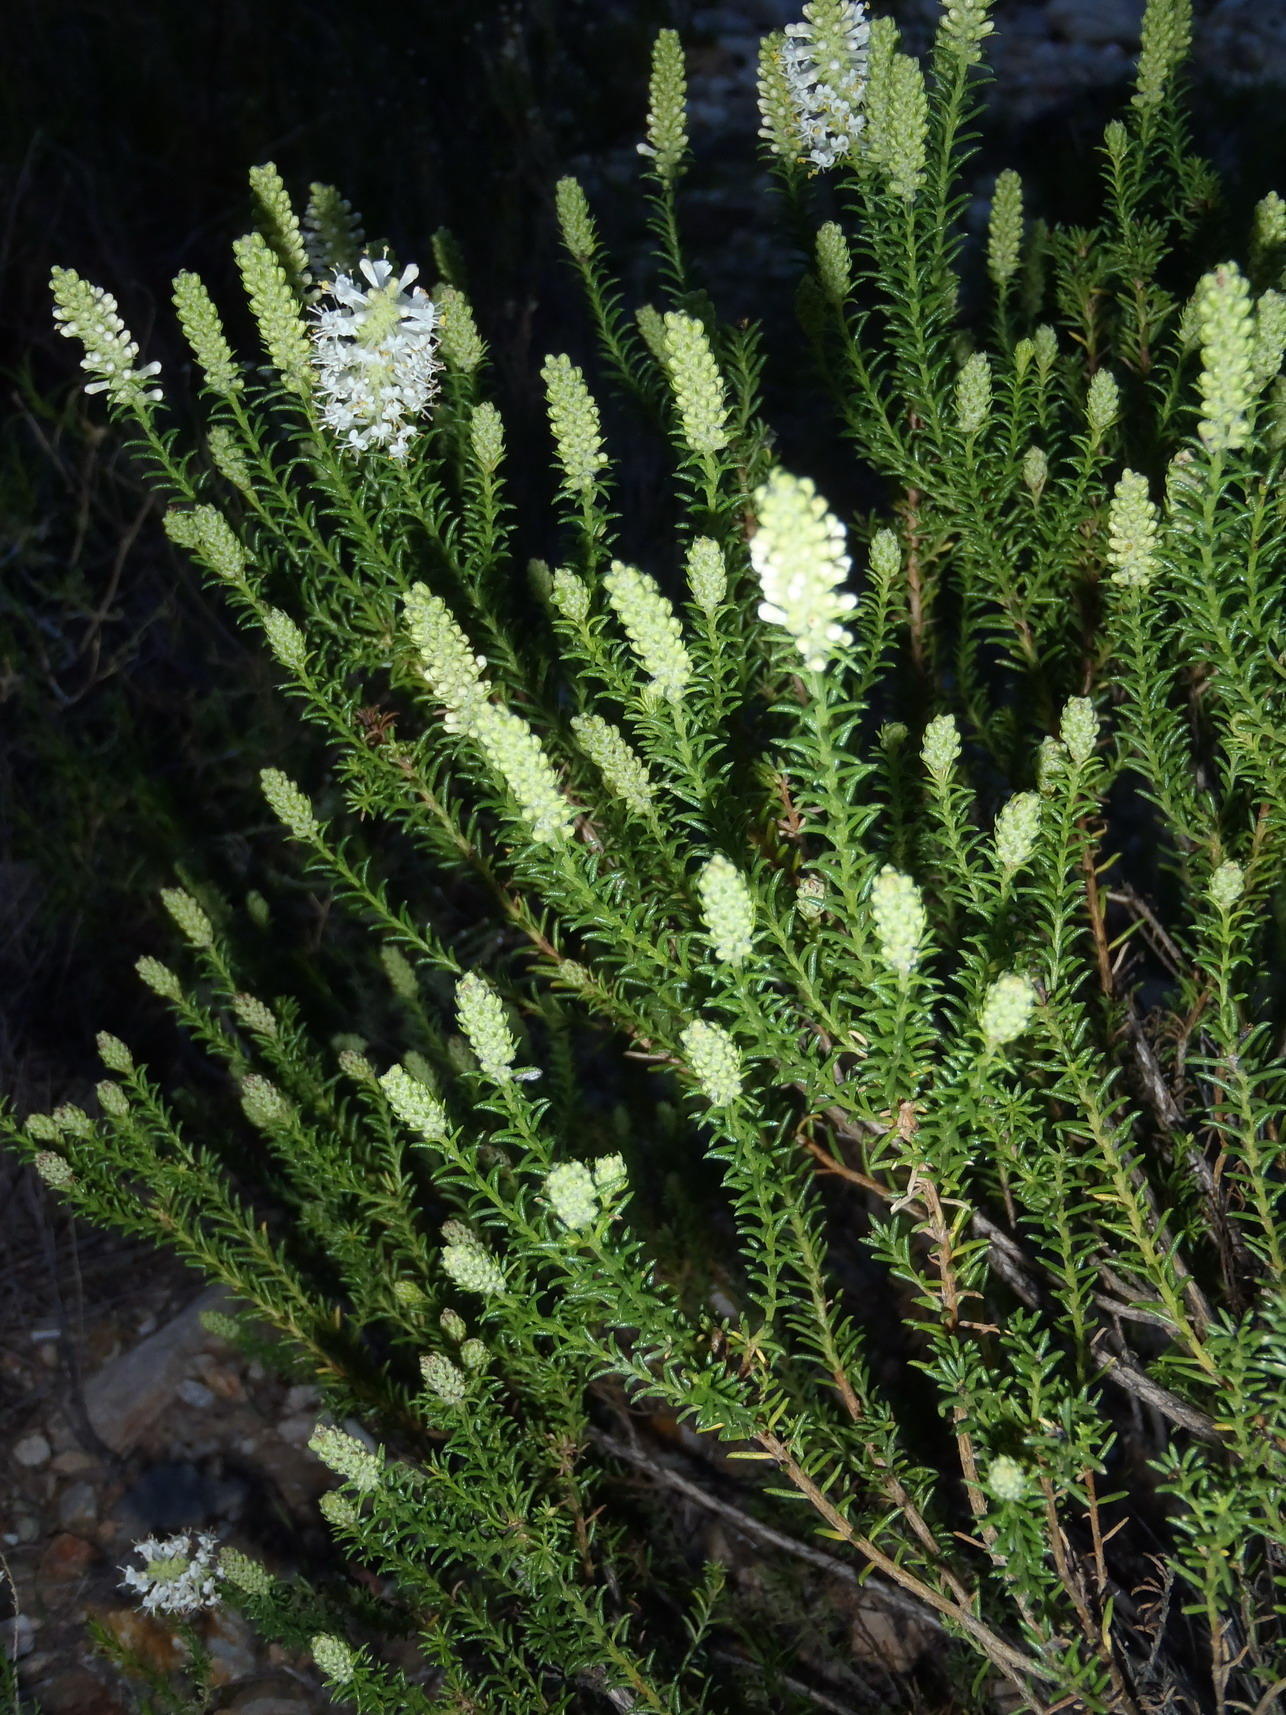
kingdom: Plantae
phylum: Tracheophyta
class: Magnoliopsida
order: Lamiales
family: Scrophulariaceae
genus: Selago
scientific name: Selago eckloniana
